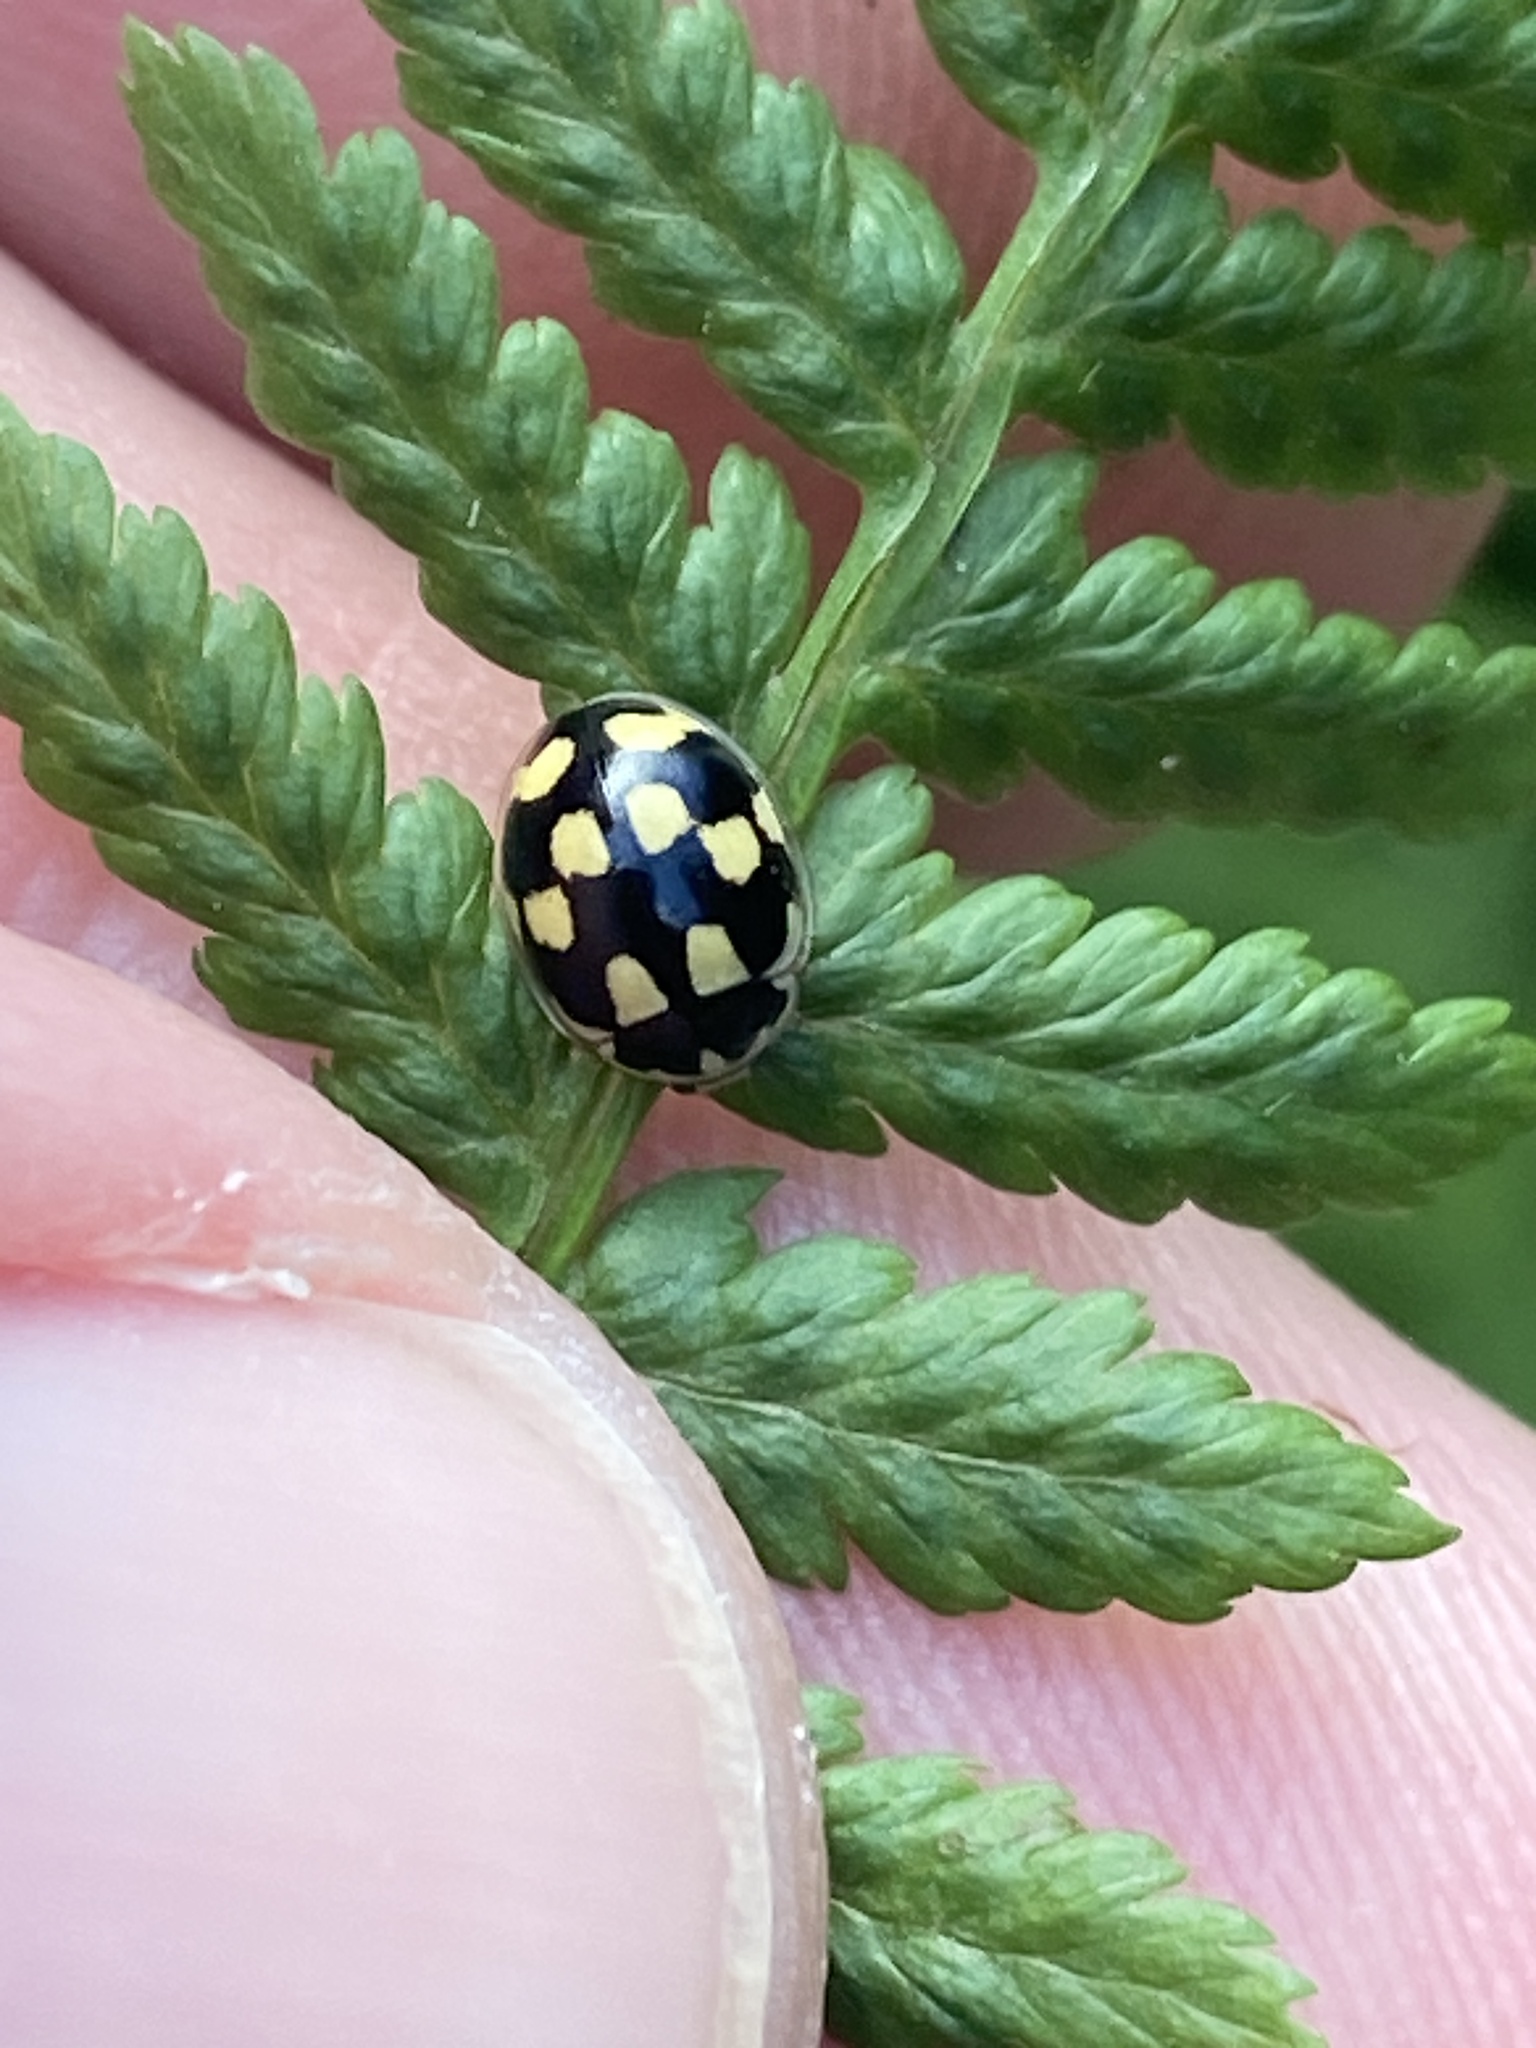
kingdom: Animalia
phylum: Arthropoda
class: Insecta
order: Coleoptera
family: Coccinellidae
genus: Propylaea
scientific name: Propylaea quatuordecimpunctata
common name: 14-spotted ladybird beetle
